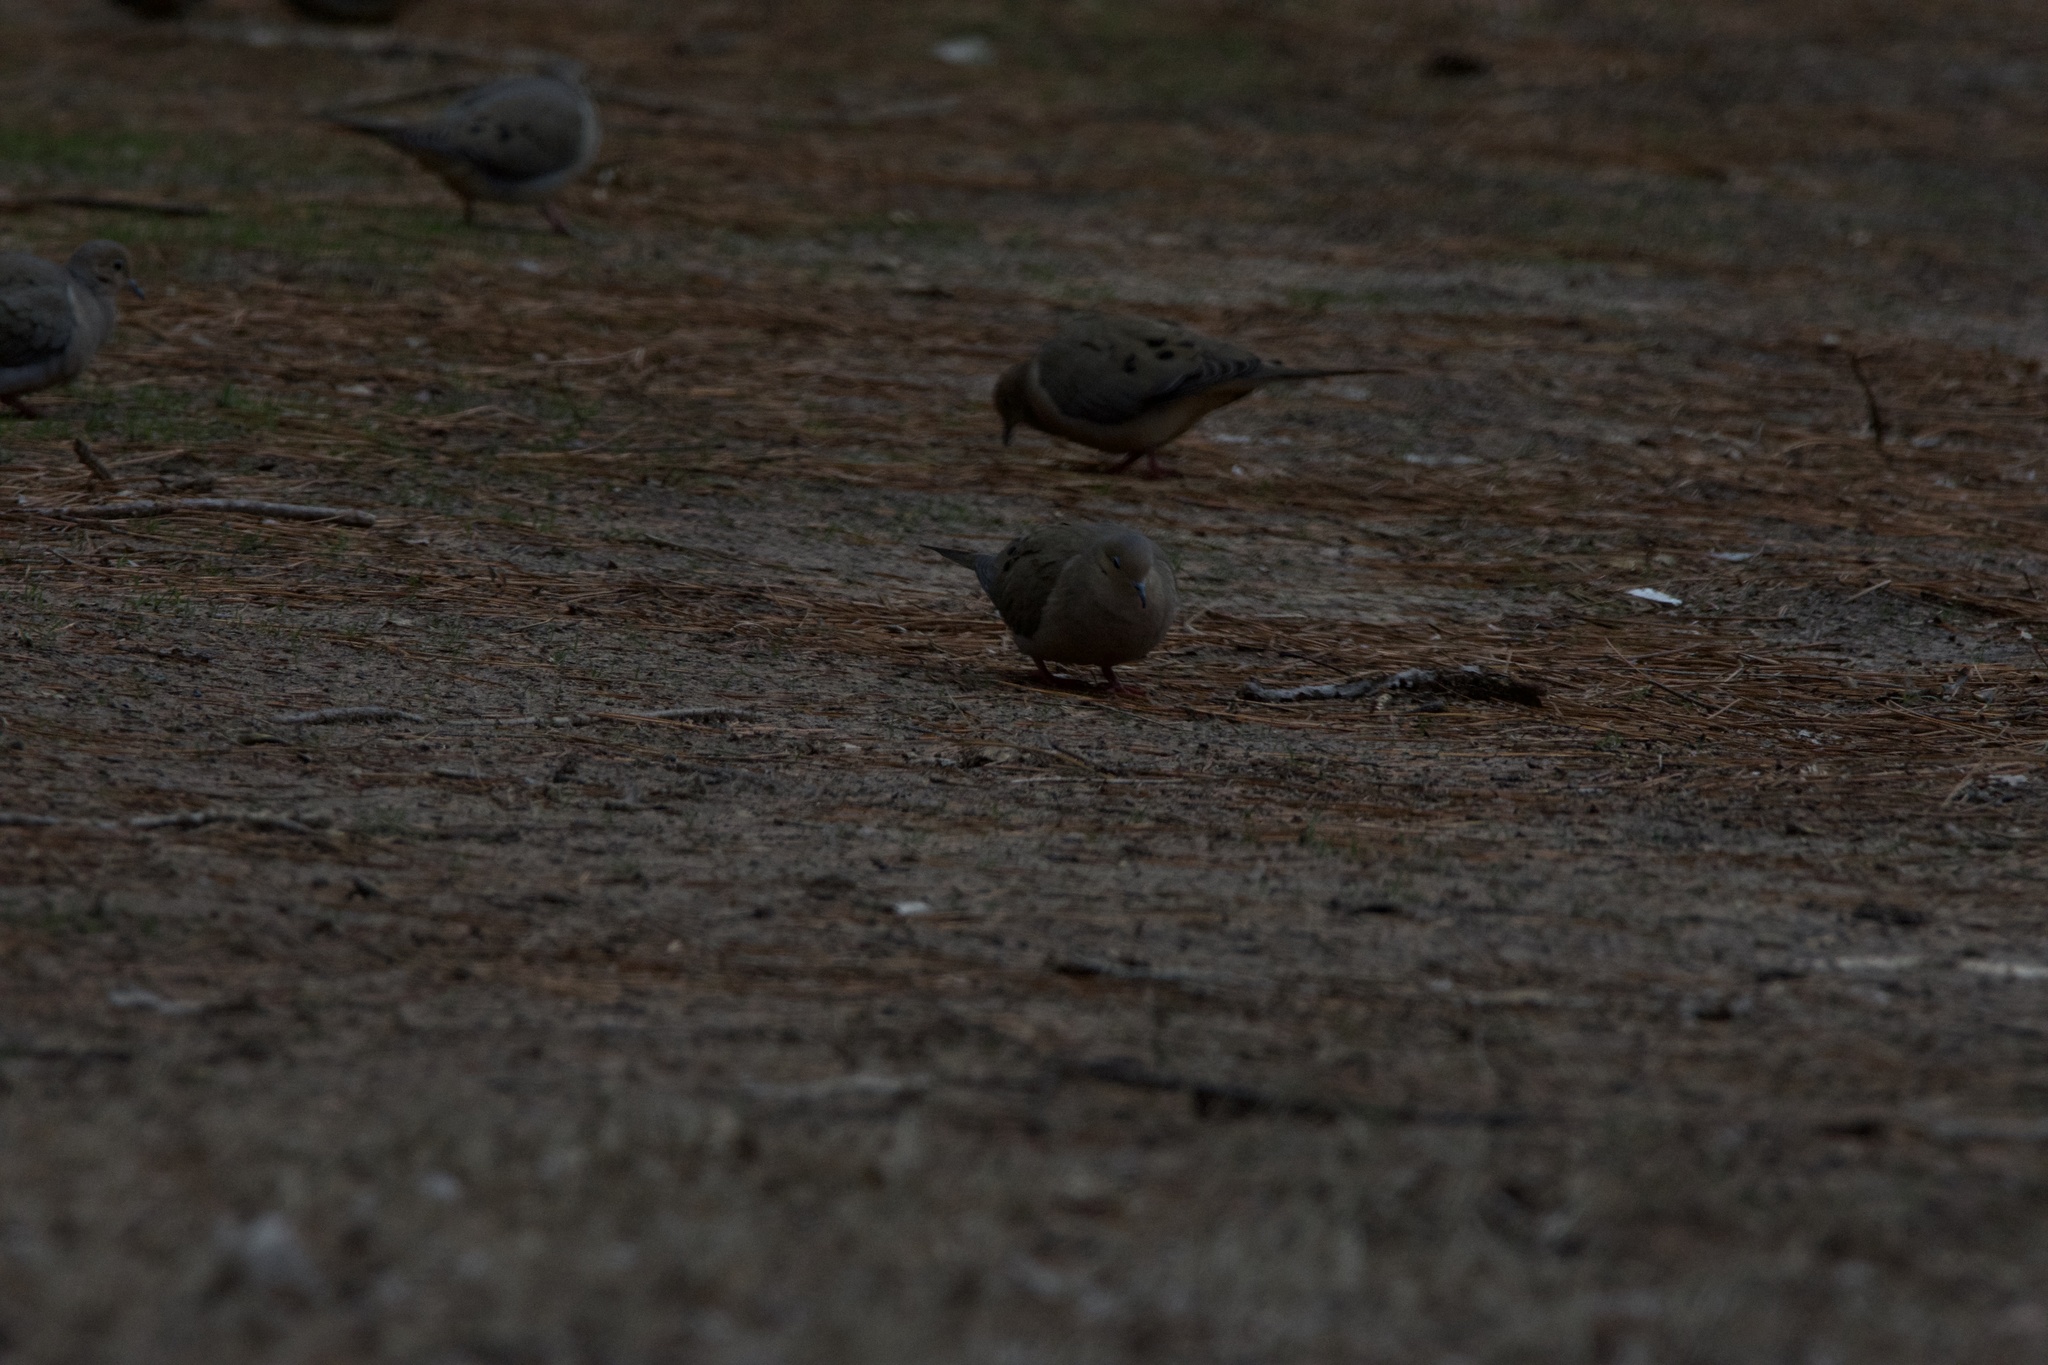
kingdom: Animalia
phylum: Chordata
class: Aves
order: Columbiformes
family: Columbidae
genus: Zenaida
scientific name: Zenaida macroura
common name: Mourning dove
